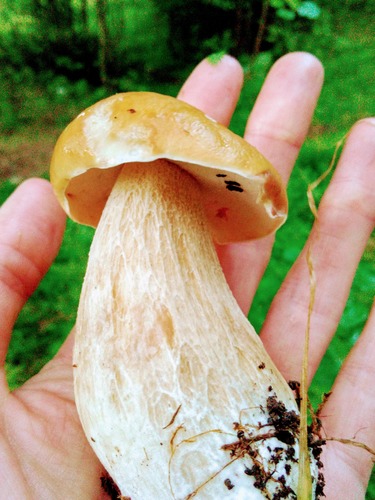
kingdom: Fungi
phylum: Basidiomycota
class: Agaricomycetes
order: Boletales
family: Boletaceae
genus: Boletus
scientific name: Boletus edulis
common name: Cep
